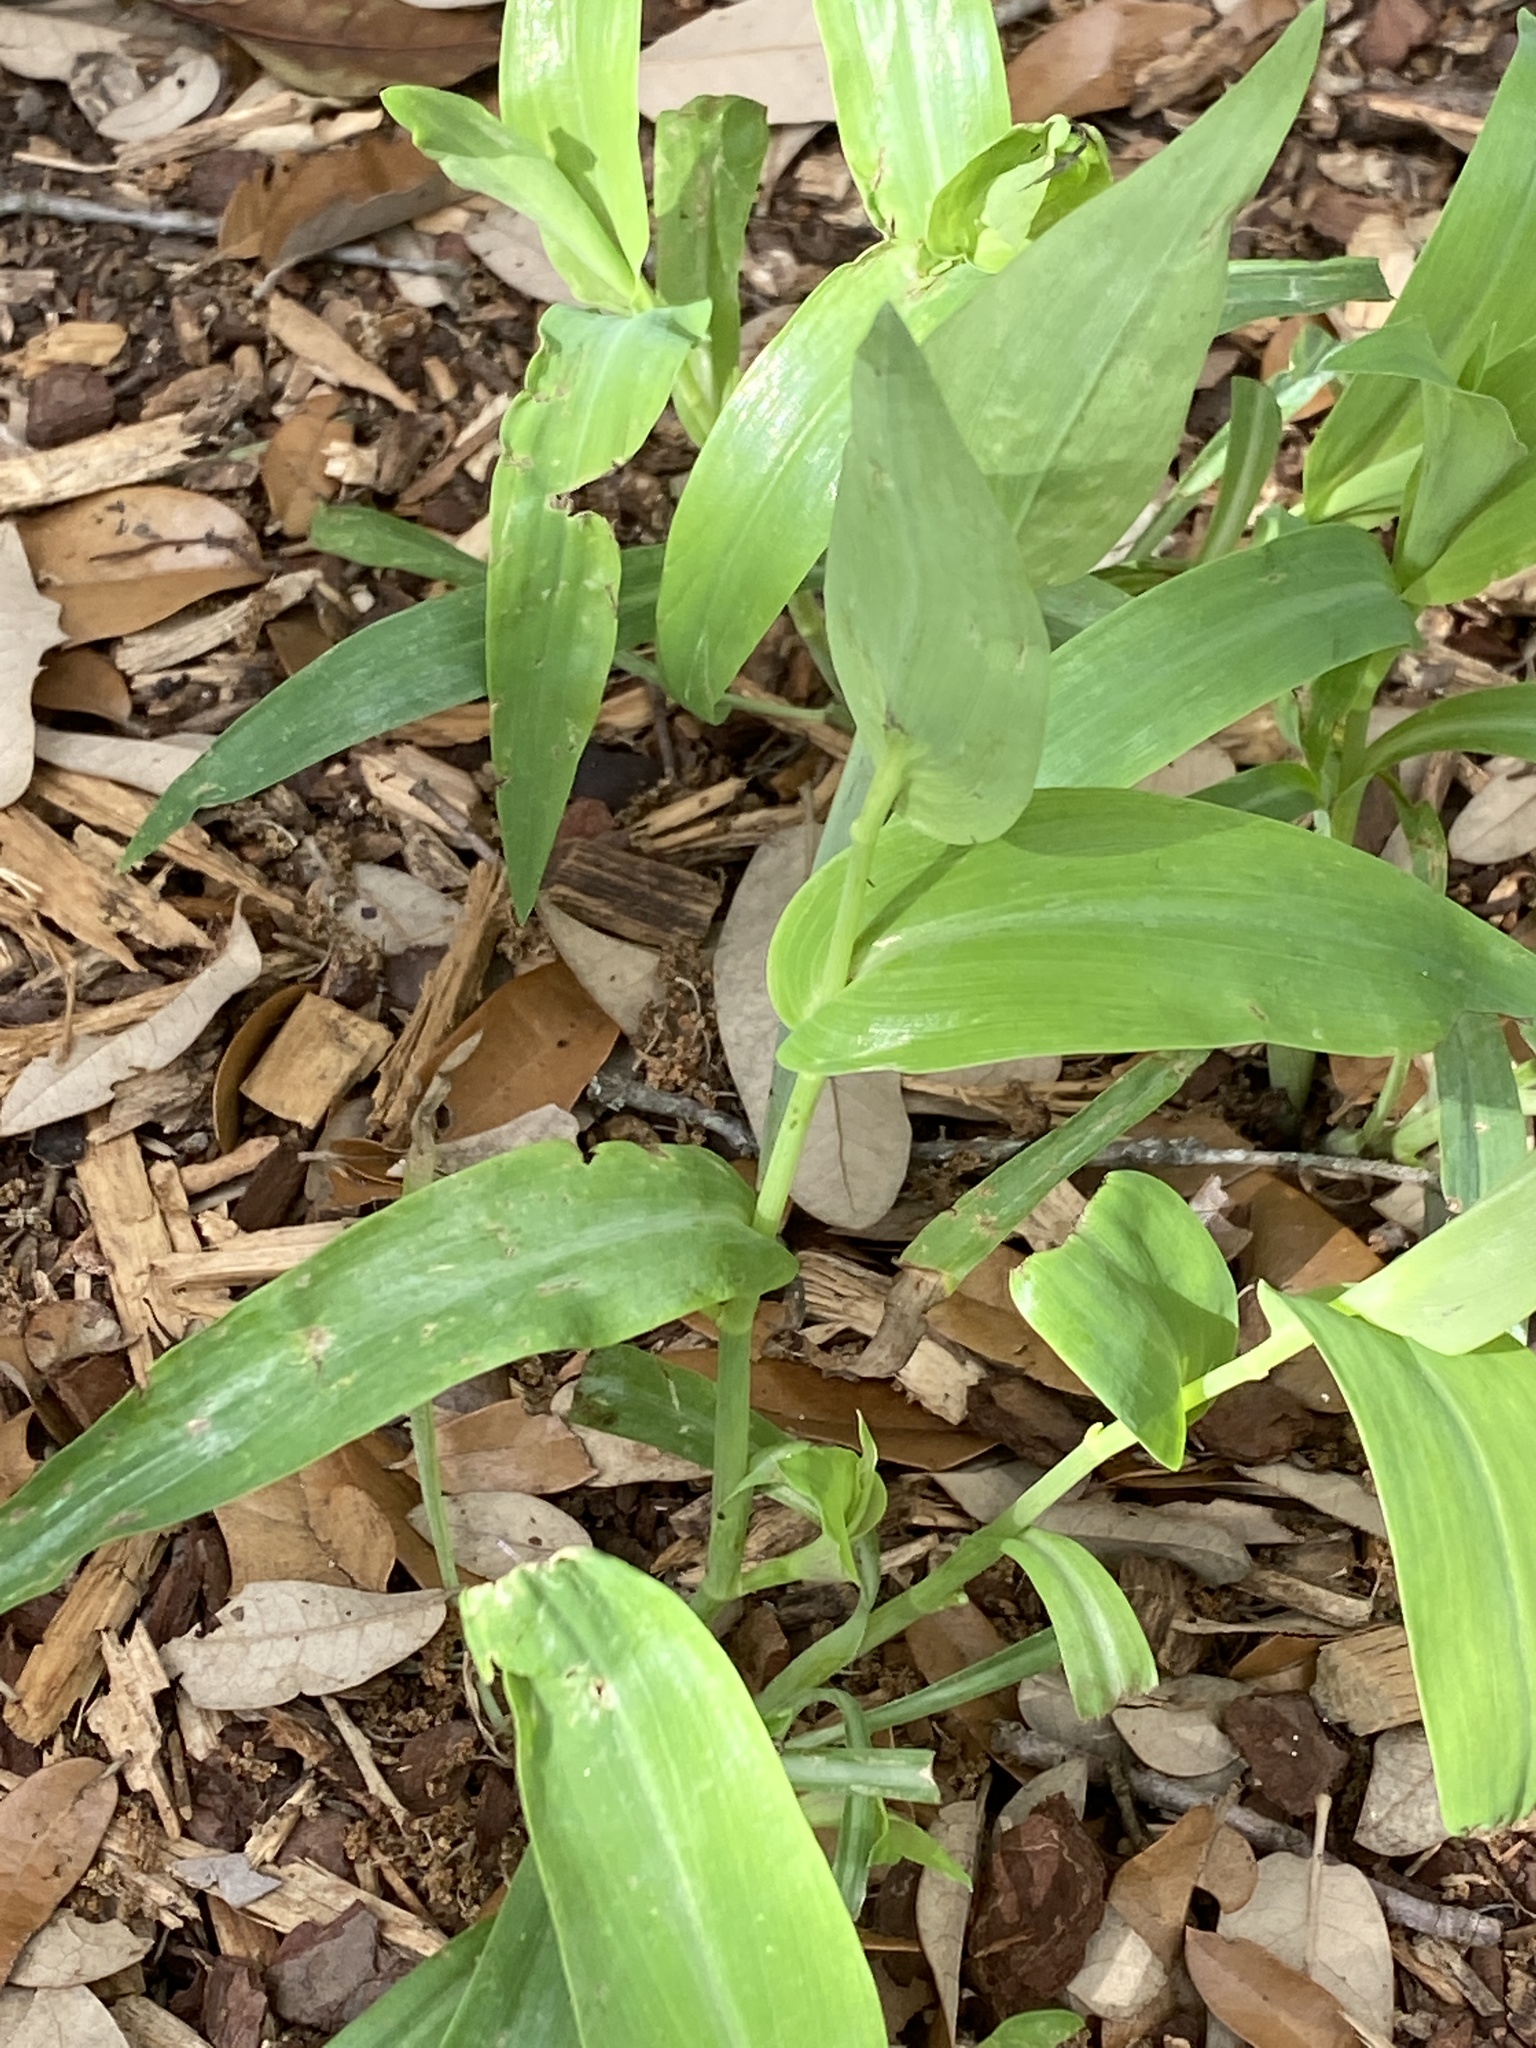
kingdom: Plantae
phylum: Tracheophyta
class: Liliopsida
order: Commelinales
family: Commelinaceae
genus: Tinantia
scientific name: Tinantia anomala
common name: False dayflower
